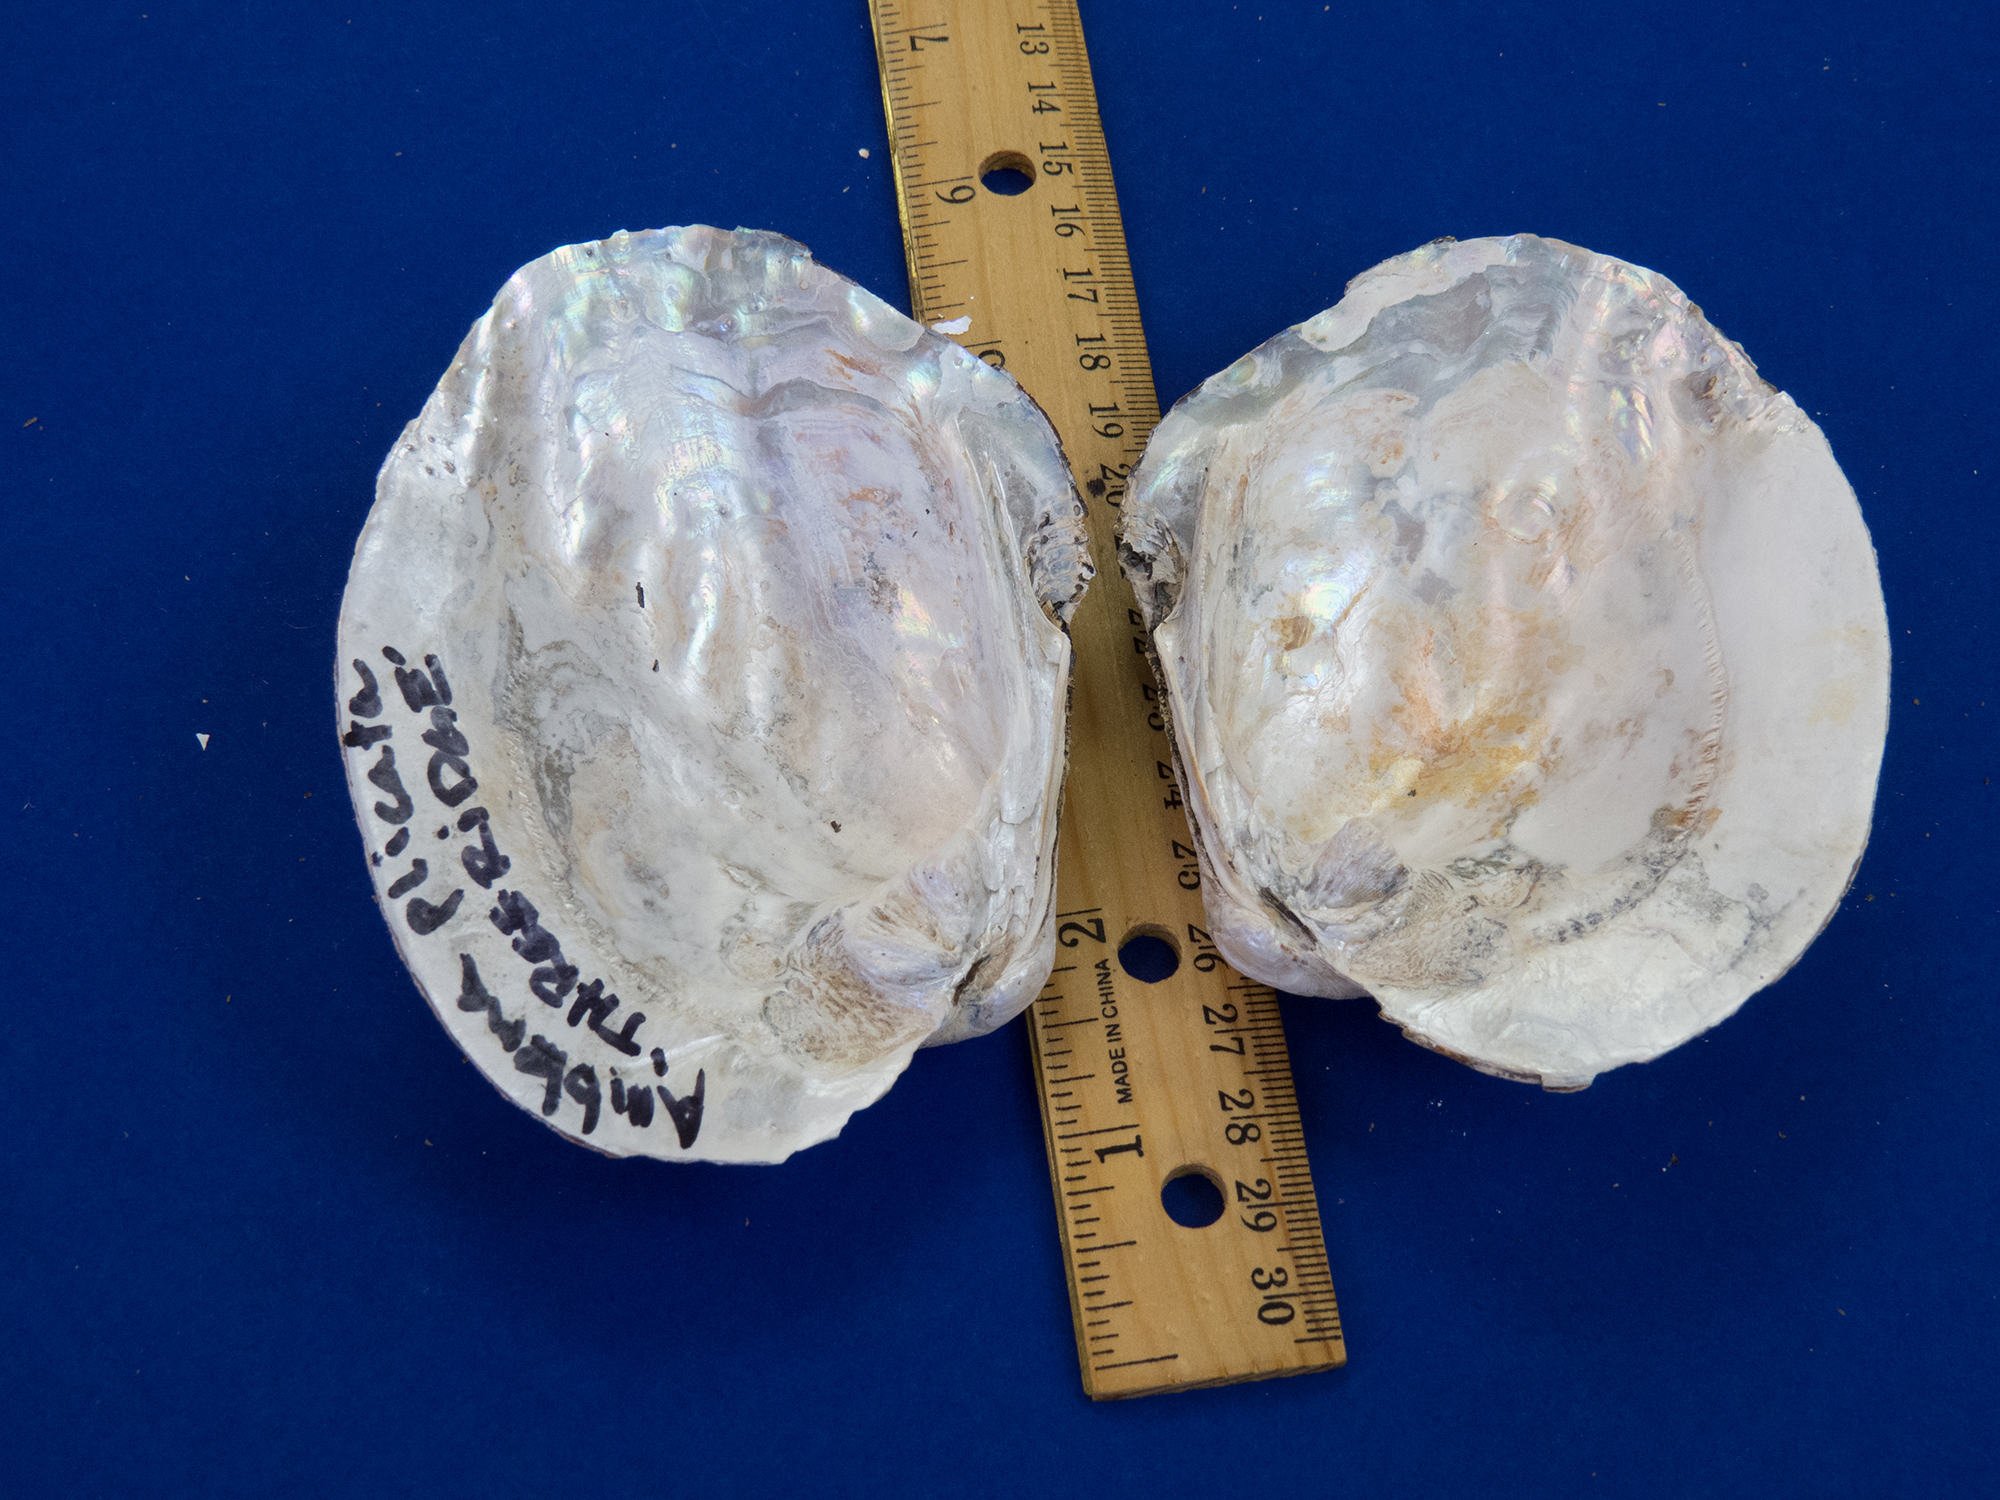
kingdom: Animalia
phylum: Mollusca
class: Bivalvia
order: Unionida
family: Unionidae
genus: Amblema
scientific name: Amblema plicata
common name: Threeridge
